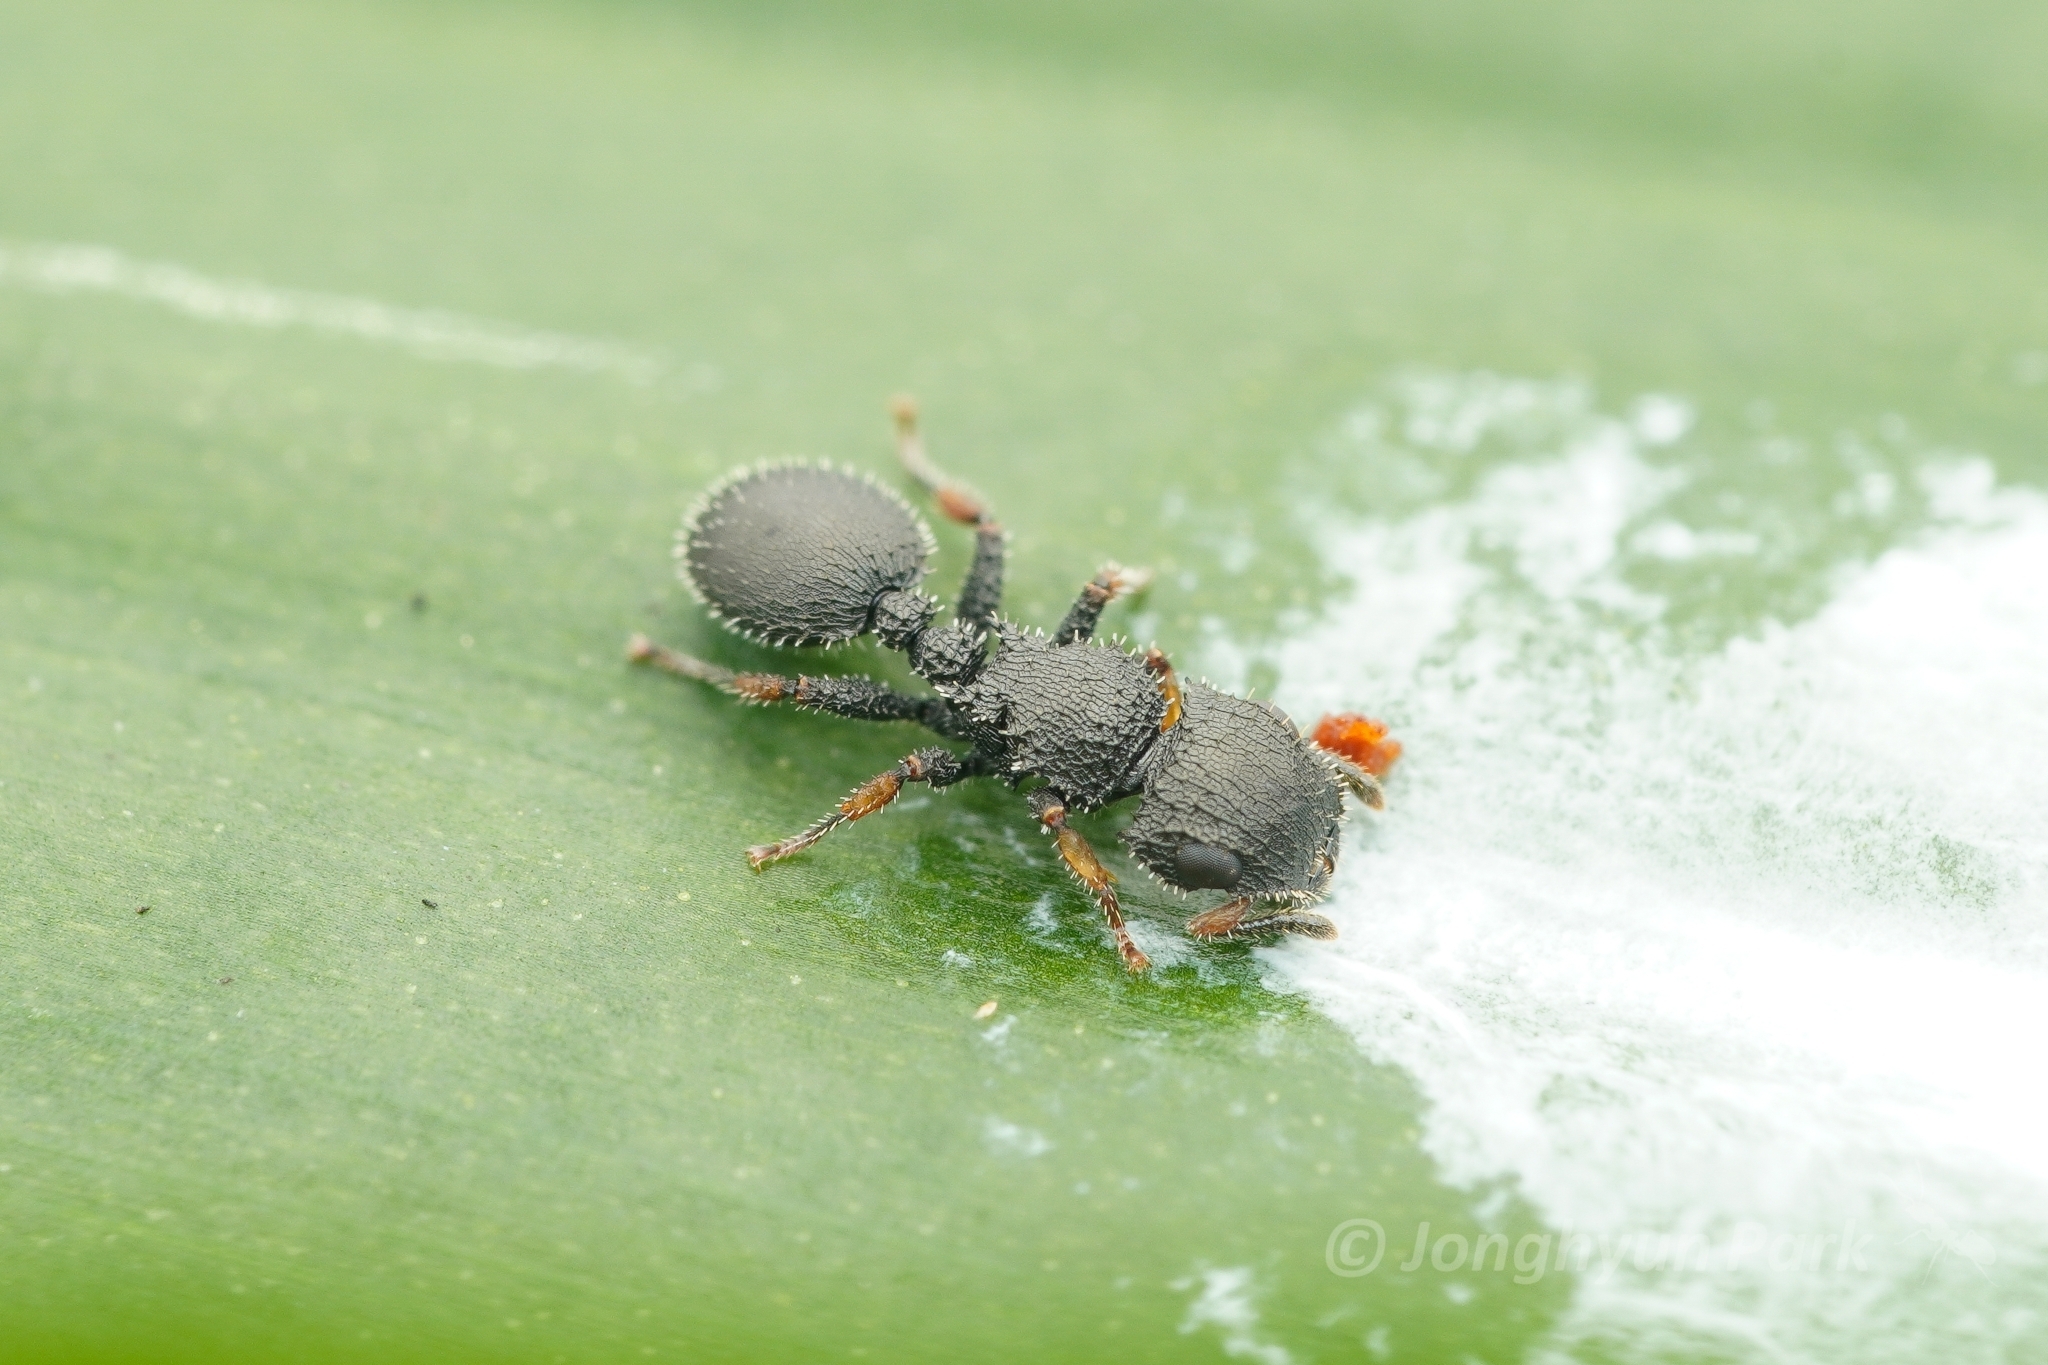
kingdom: Animalia
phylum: Arthropoda
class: Insecta
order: Hymenoptera
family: Formicidae
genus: Cataulacus
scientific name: Cataulacus granulatus
